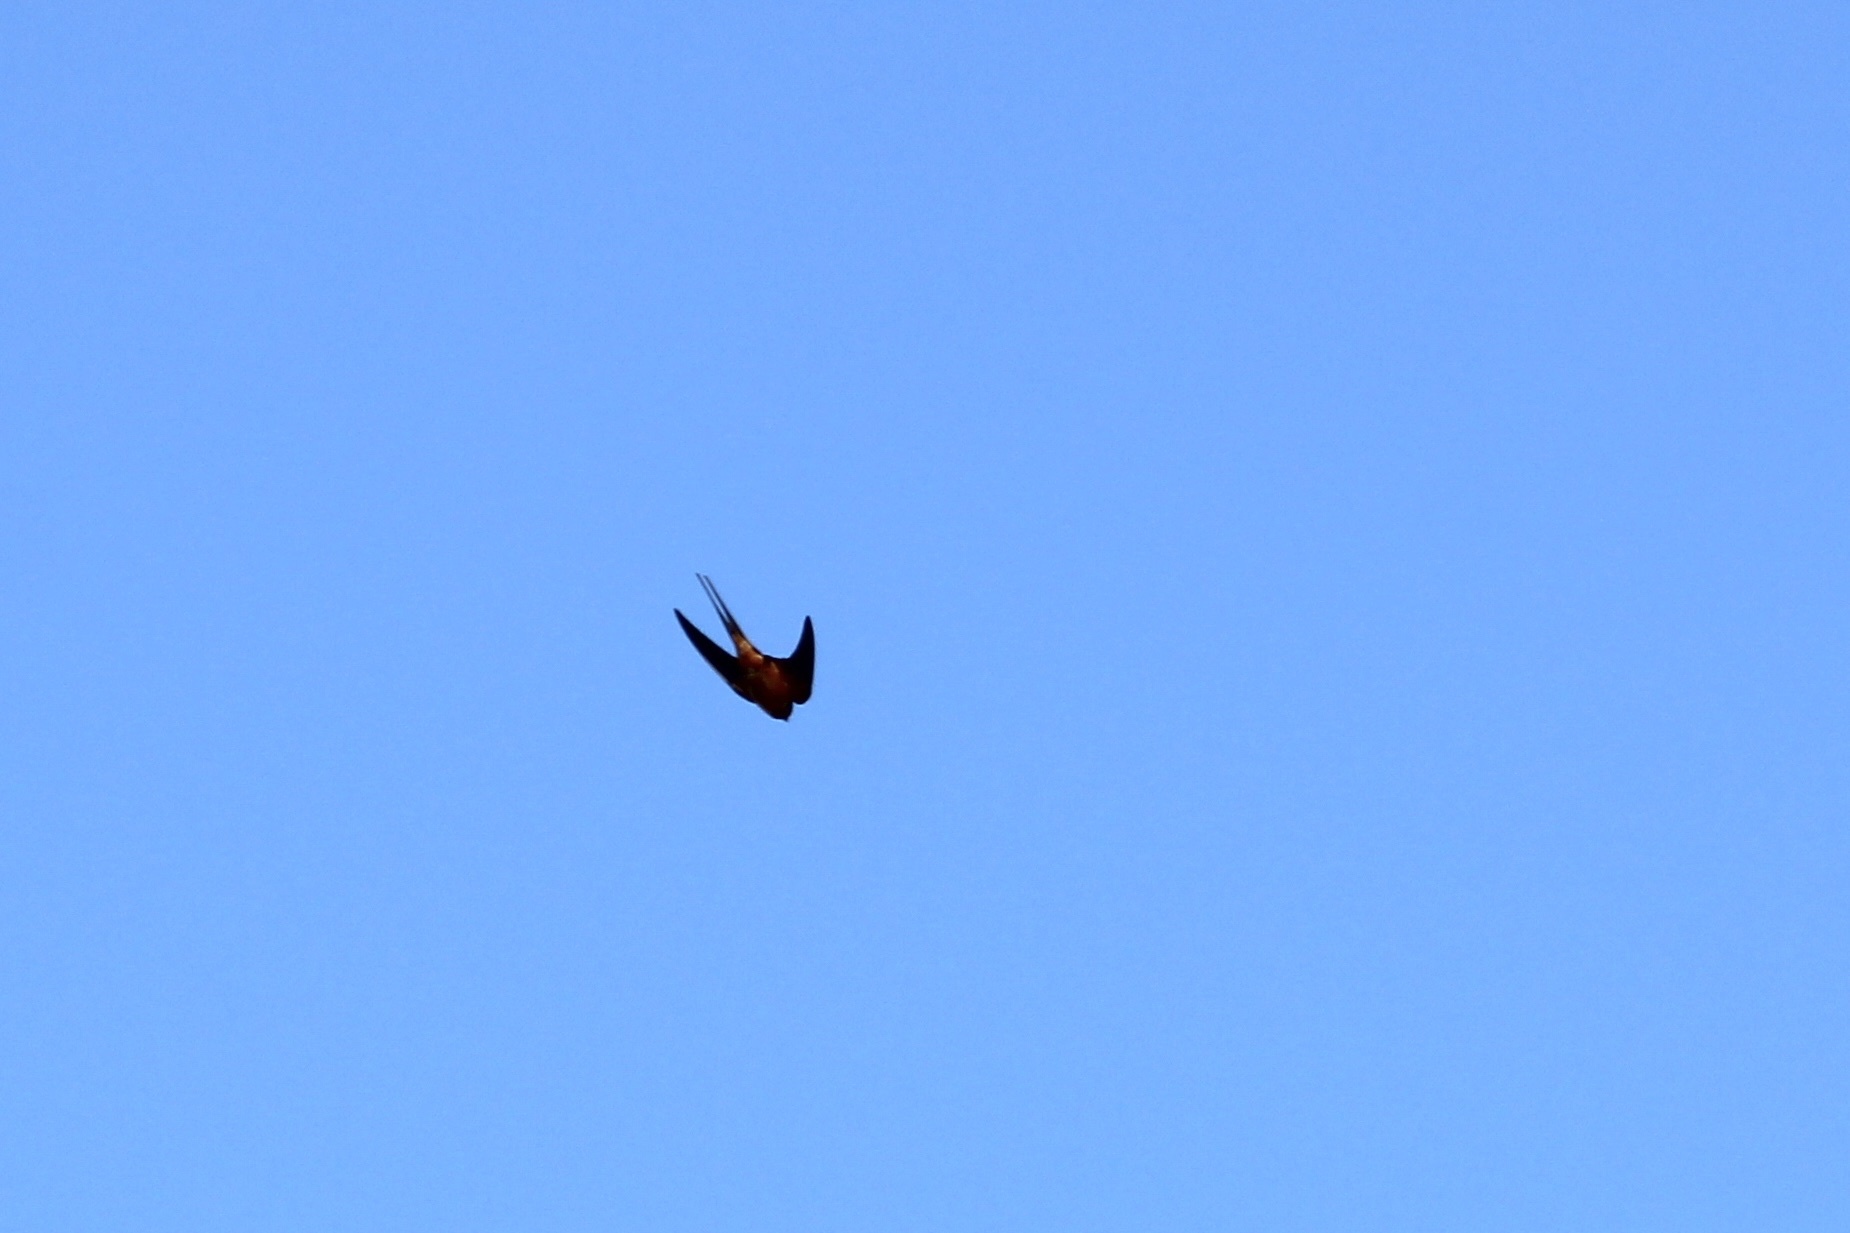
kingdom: Animalia
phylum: Chordata
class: Aves
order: Passeriformes
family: Hirundinidae
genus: Hirundo
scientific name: Hirundo rustica
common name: Barn swallow
